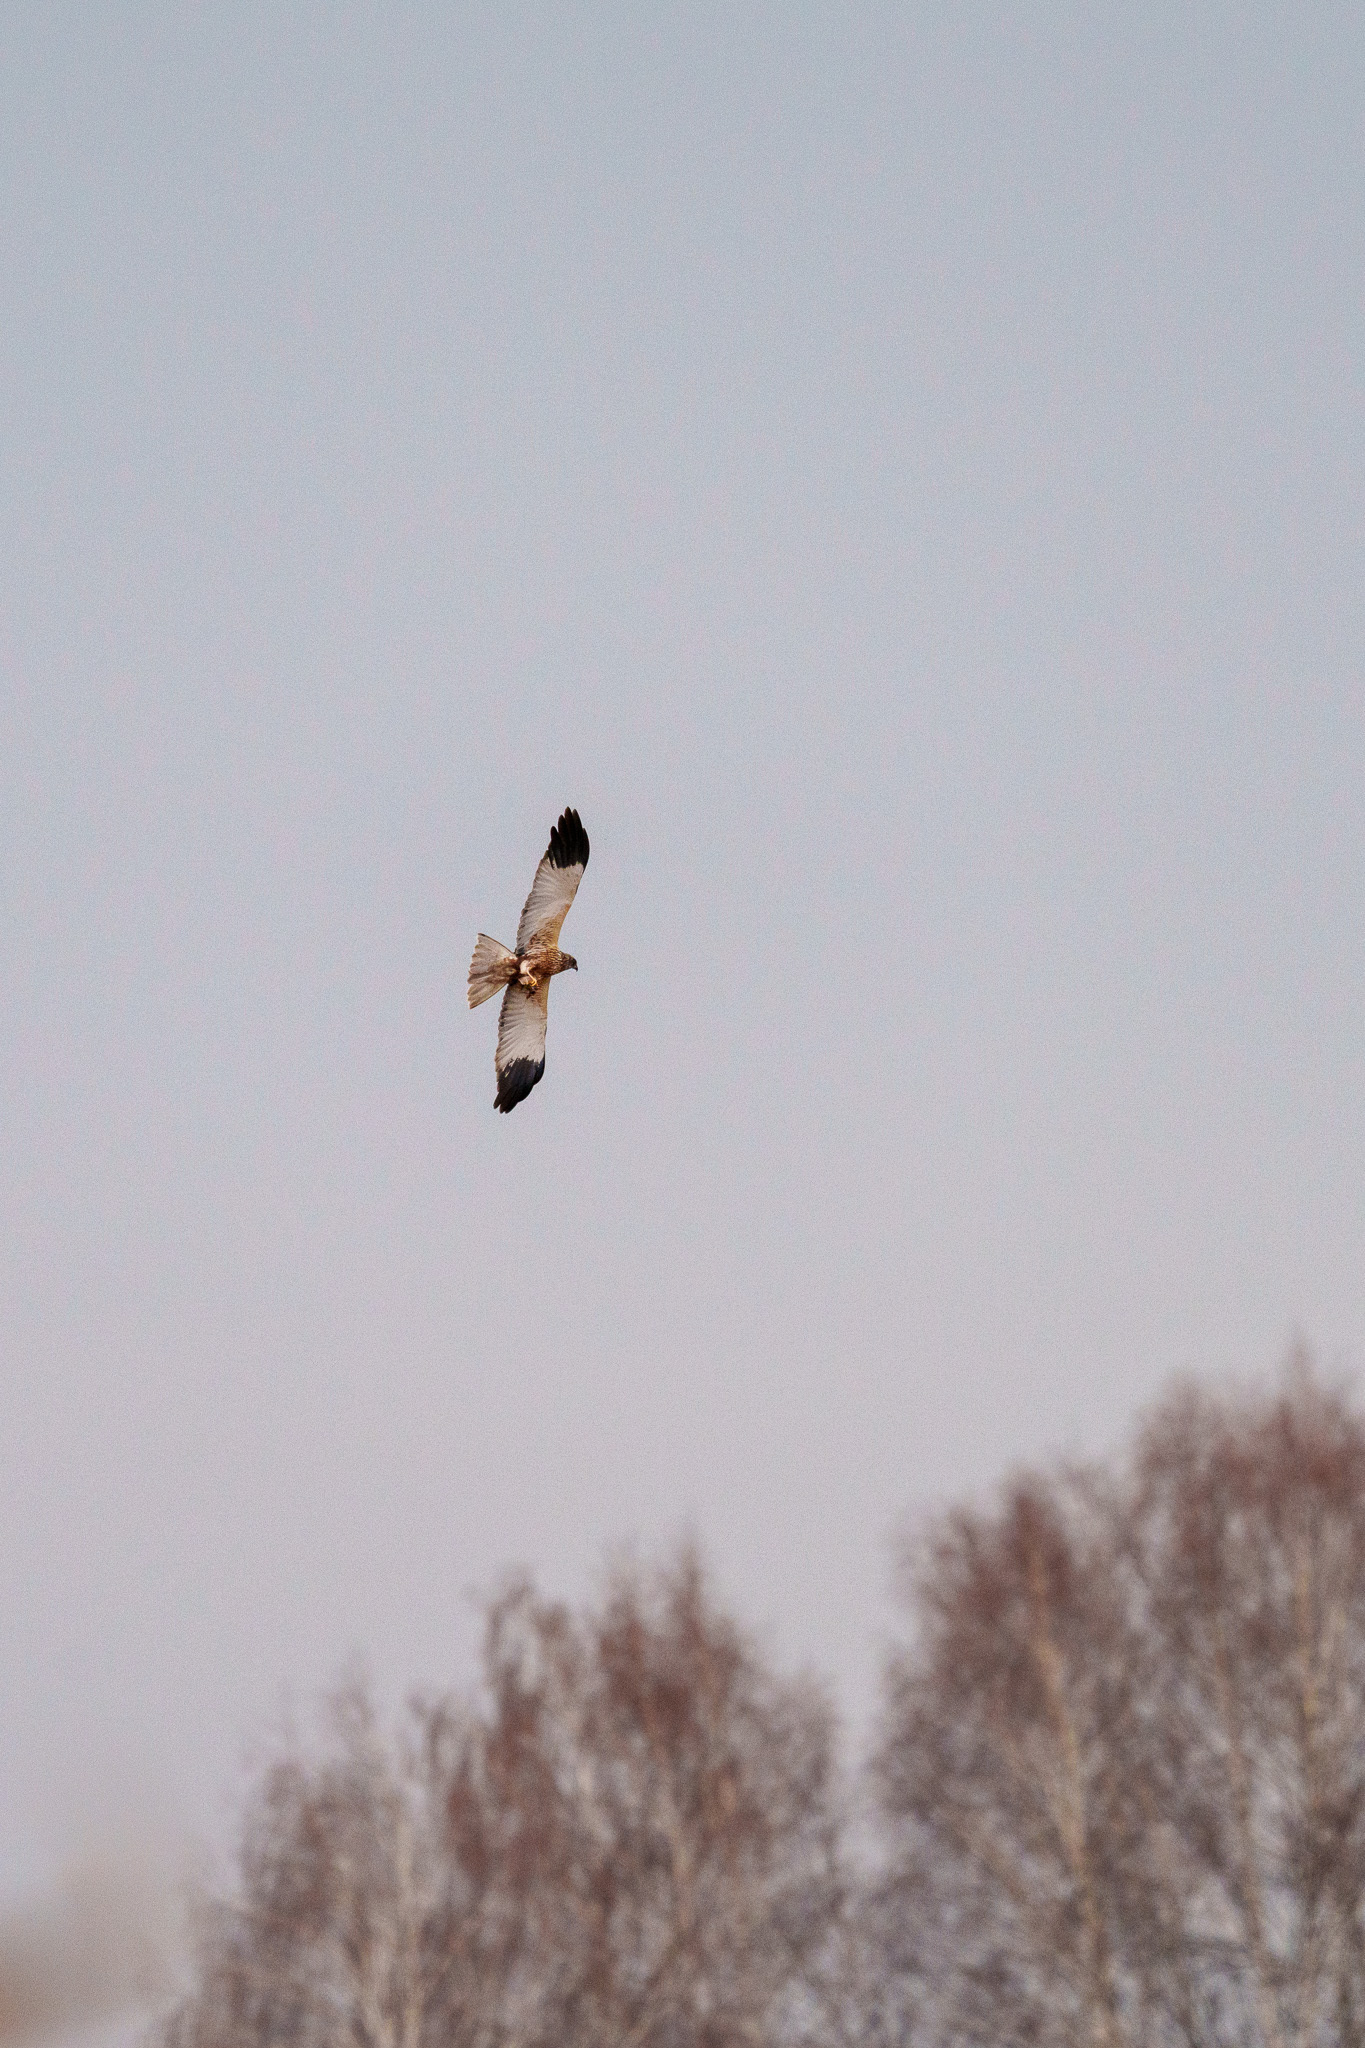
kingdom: Animalia
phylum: Chordata
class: Aves
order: Accipitriformes
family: Accipitridae
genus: Circus
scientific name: Circus aeruginosus
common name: Western marsh harrier
